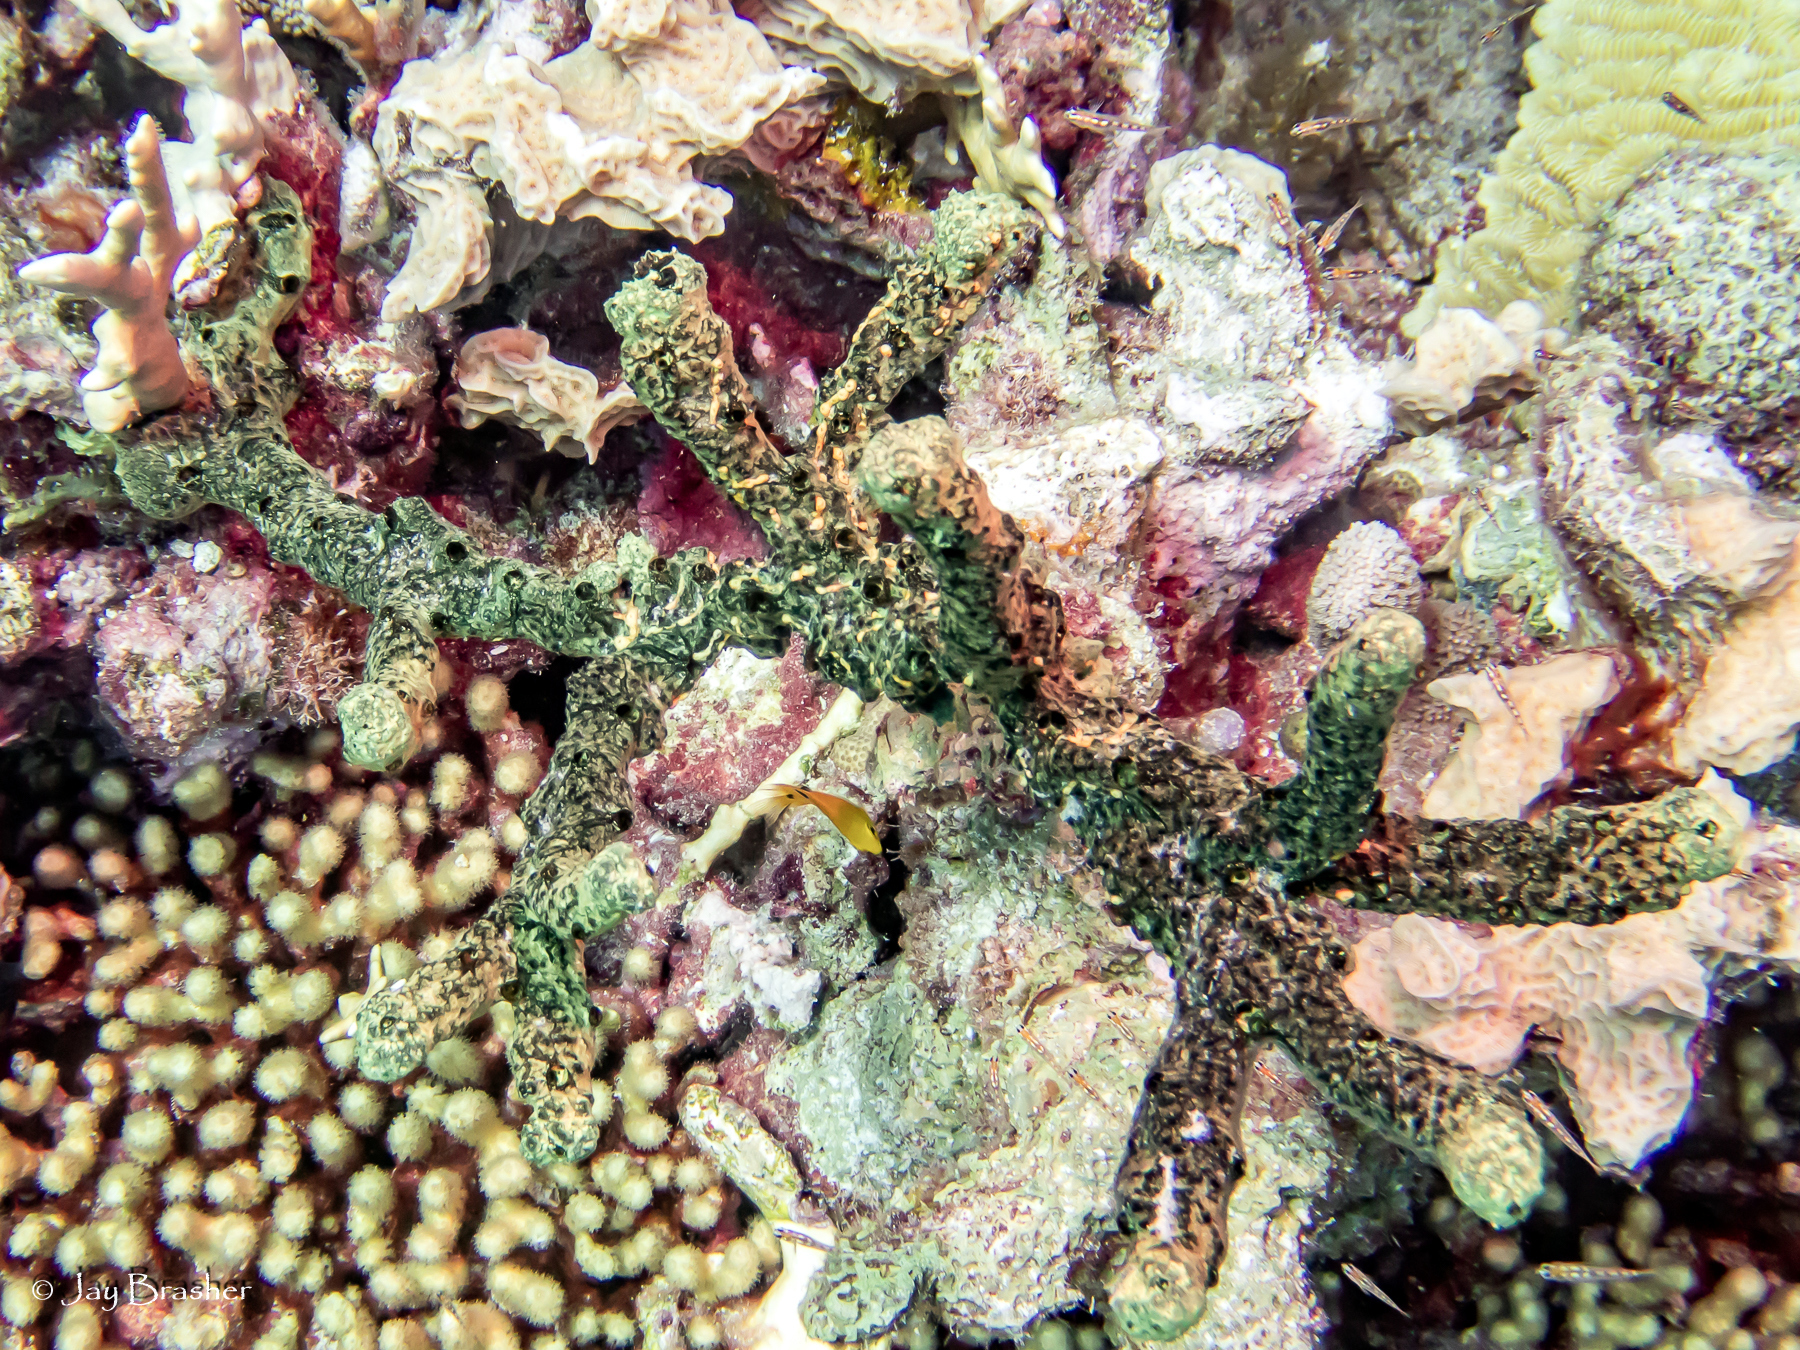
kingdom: Animalia
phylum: Cnidaria
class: Anthozoa
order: Zoantharia
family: Parazoanthidae
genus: Parazoanthus
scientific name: Parazoanthus swiftii
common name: Golden zoanthid
